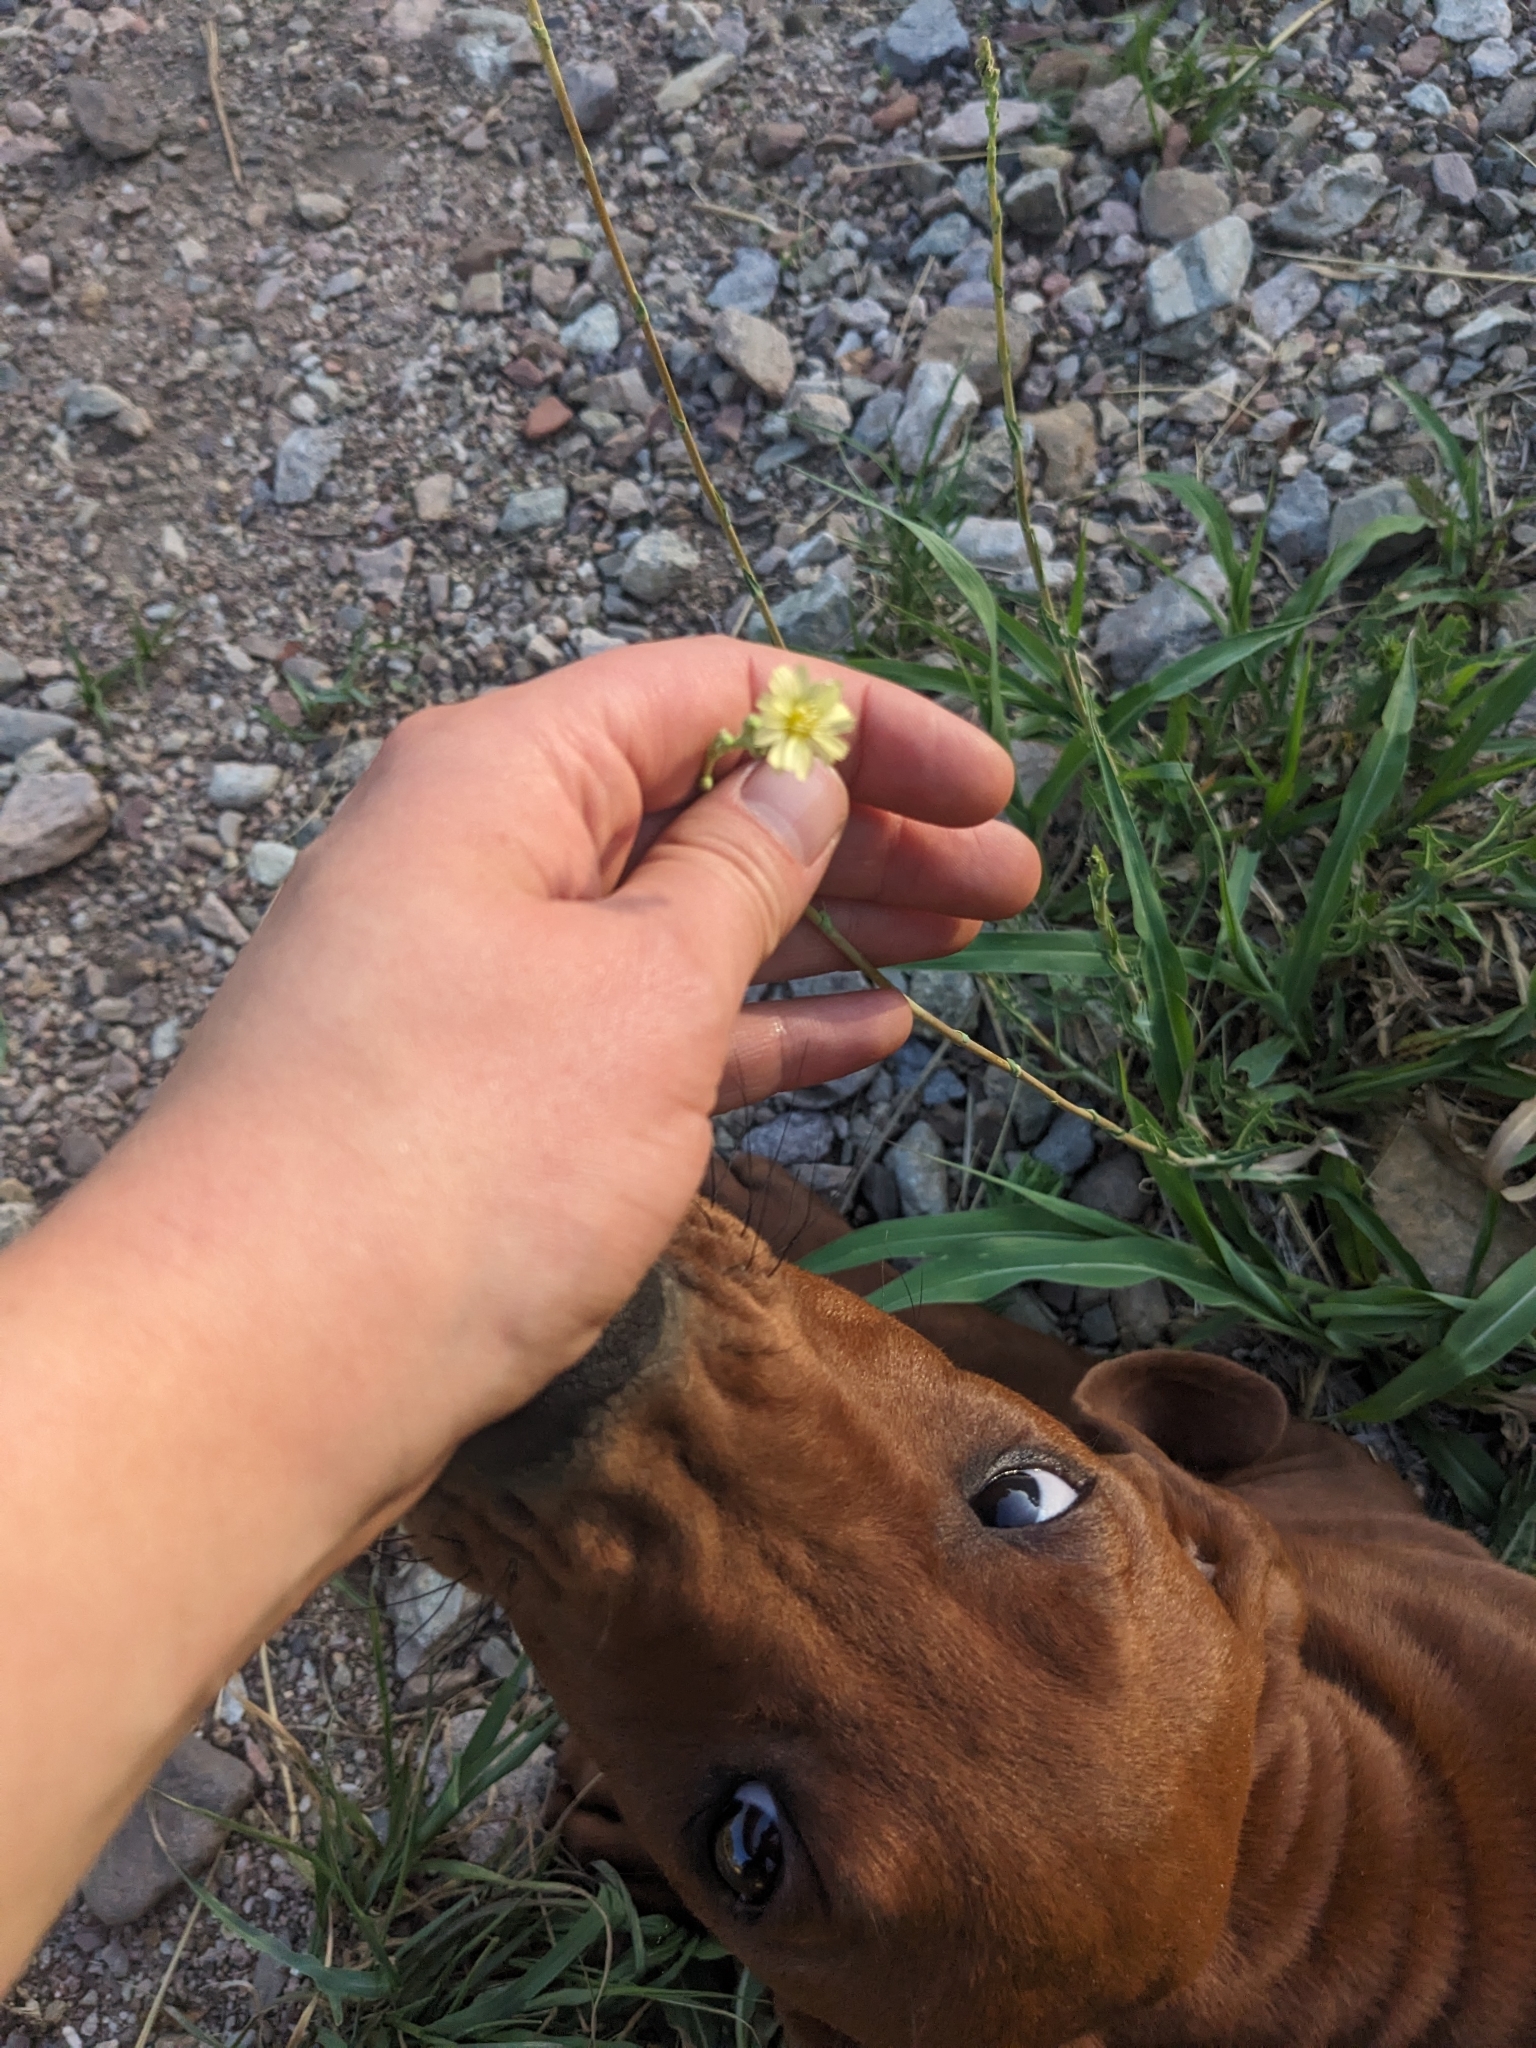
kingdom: Plantae
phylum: Tracheophyta
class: Magnoliopsida
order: Asterales
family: Asteraceae
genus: Lactuca
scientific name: Lactuca serriola
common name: Prickly lettuce
